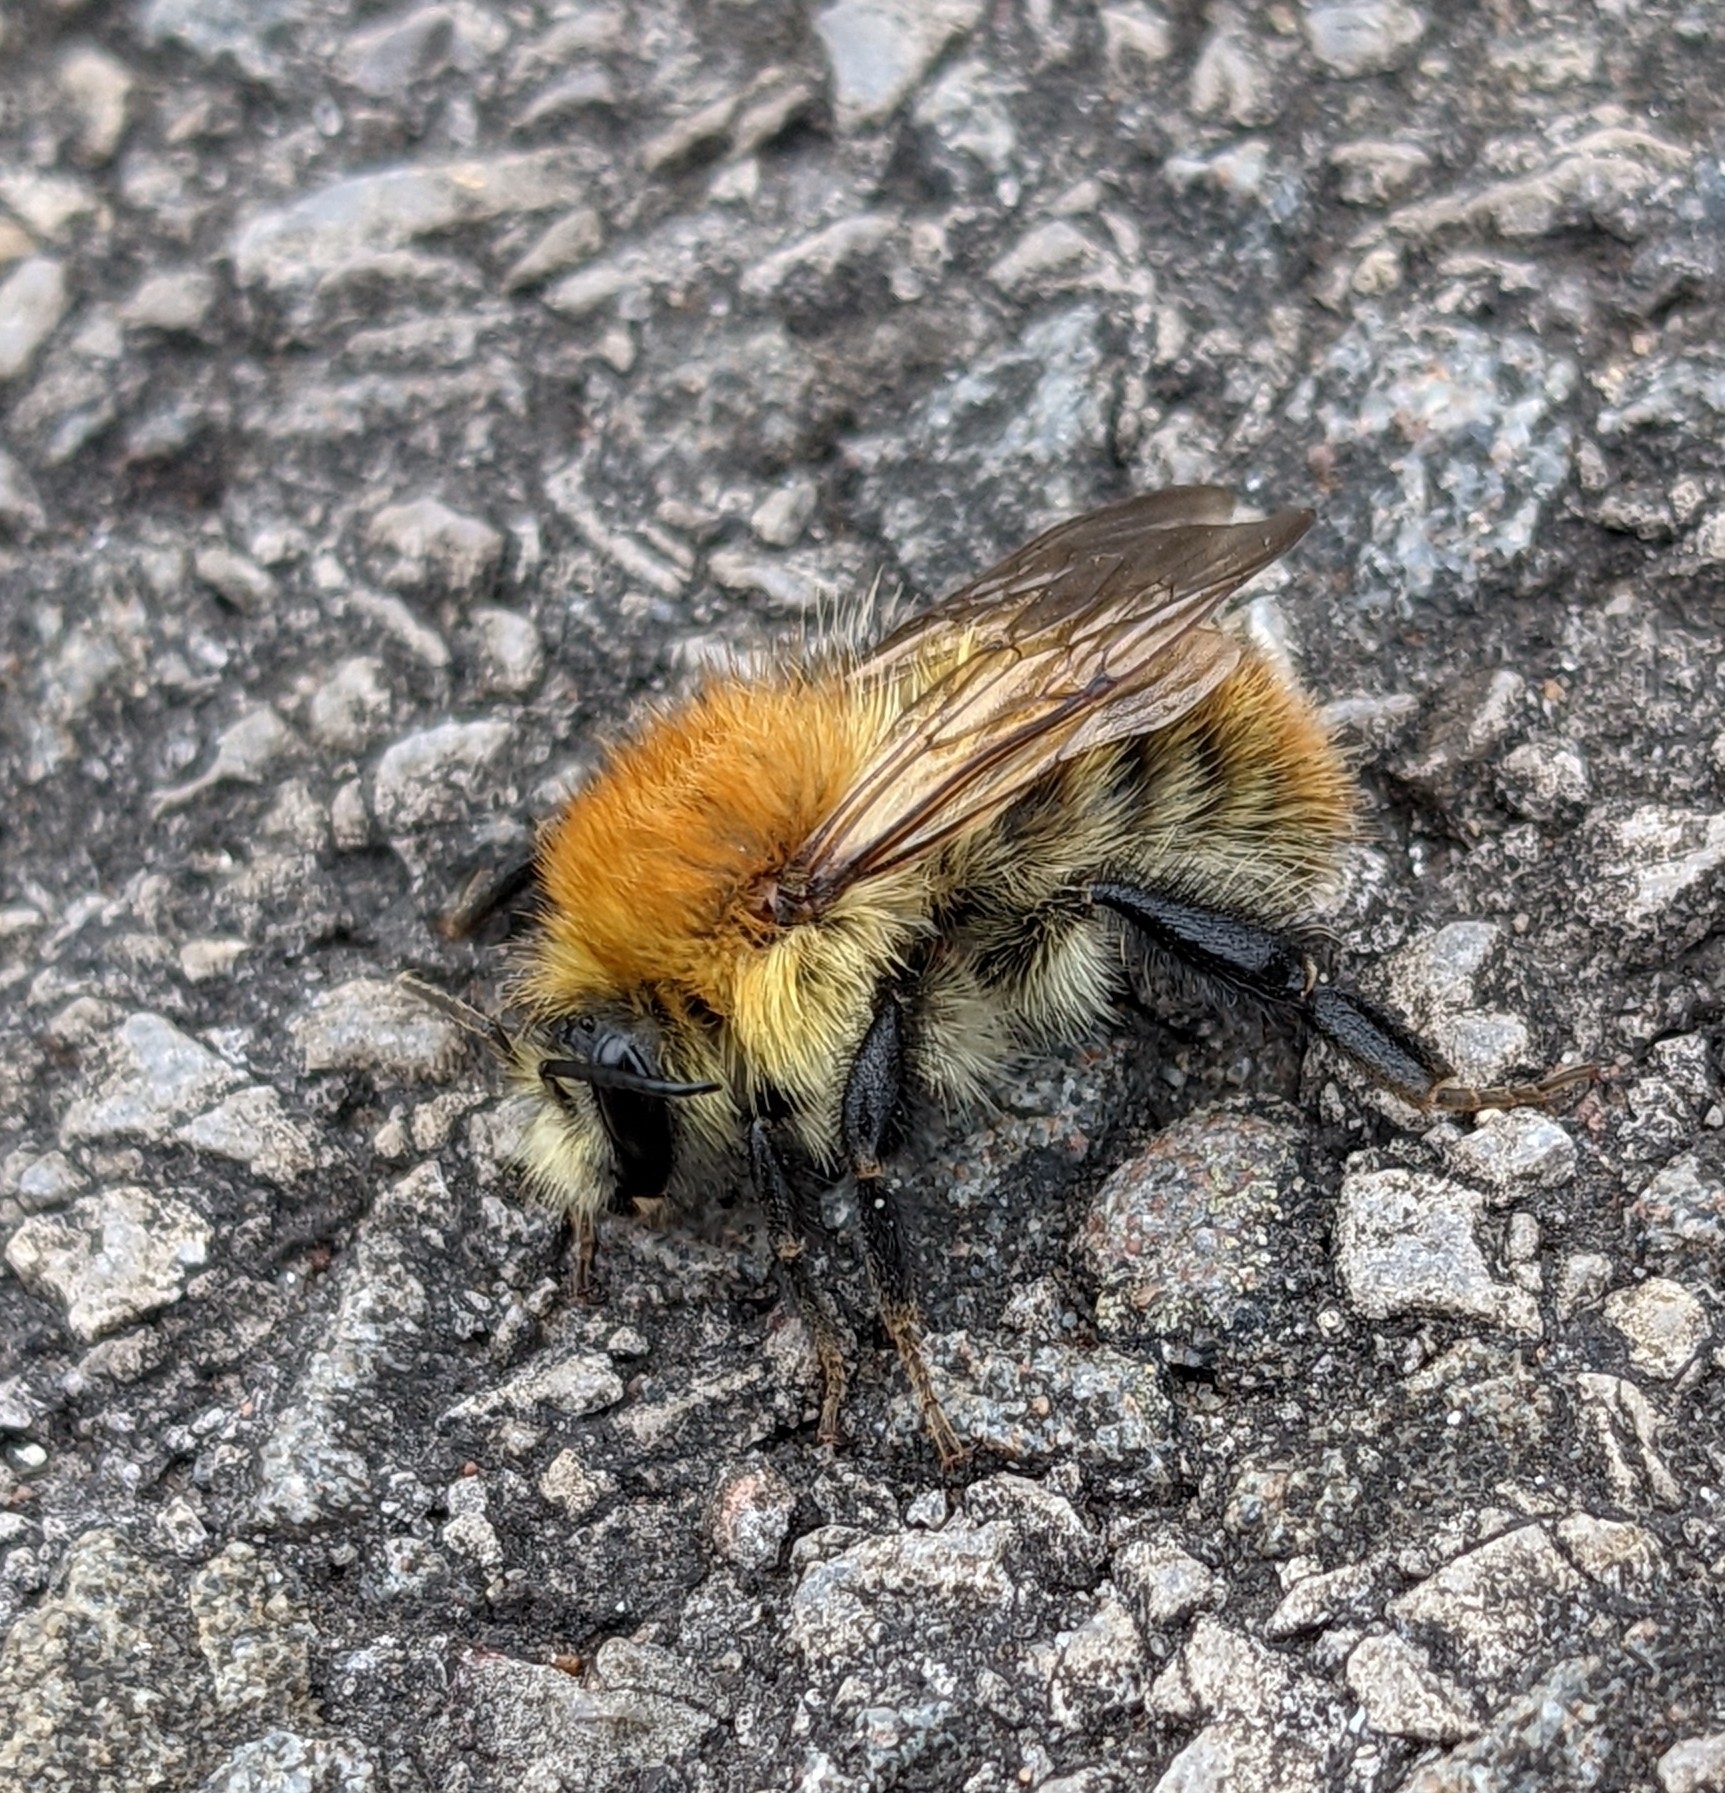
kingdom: Animalia
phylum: Arthropoda
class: Insecta
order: Hymenoptera
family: Apidae
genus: Bombus
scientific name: Bombus pascuorum
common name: Common carder bee
